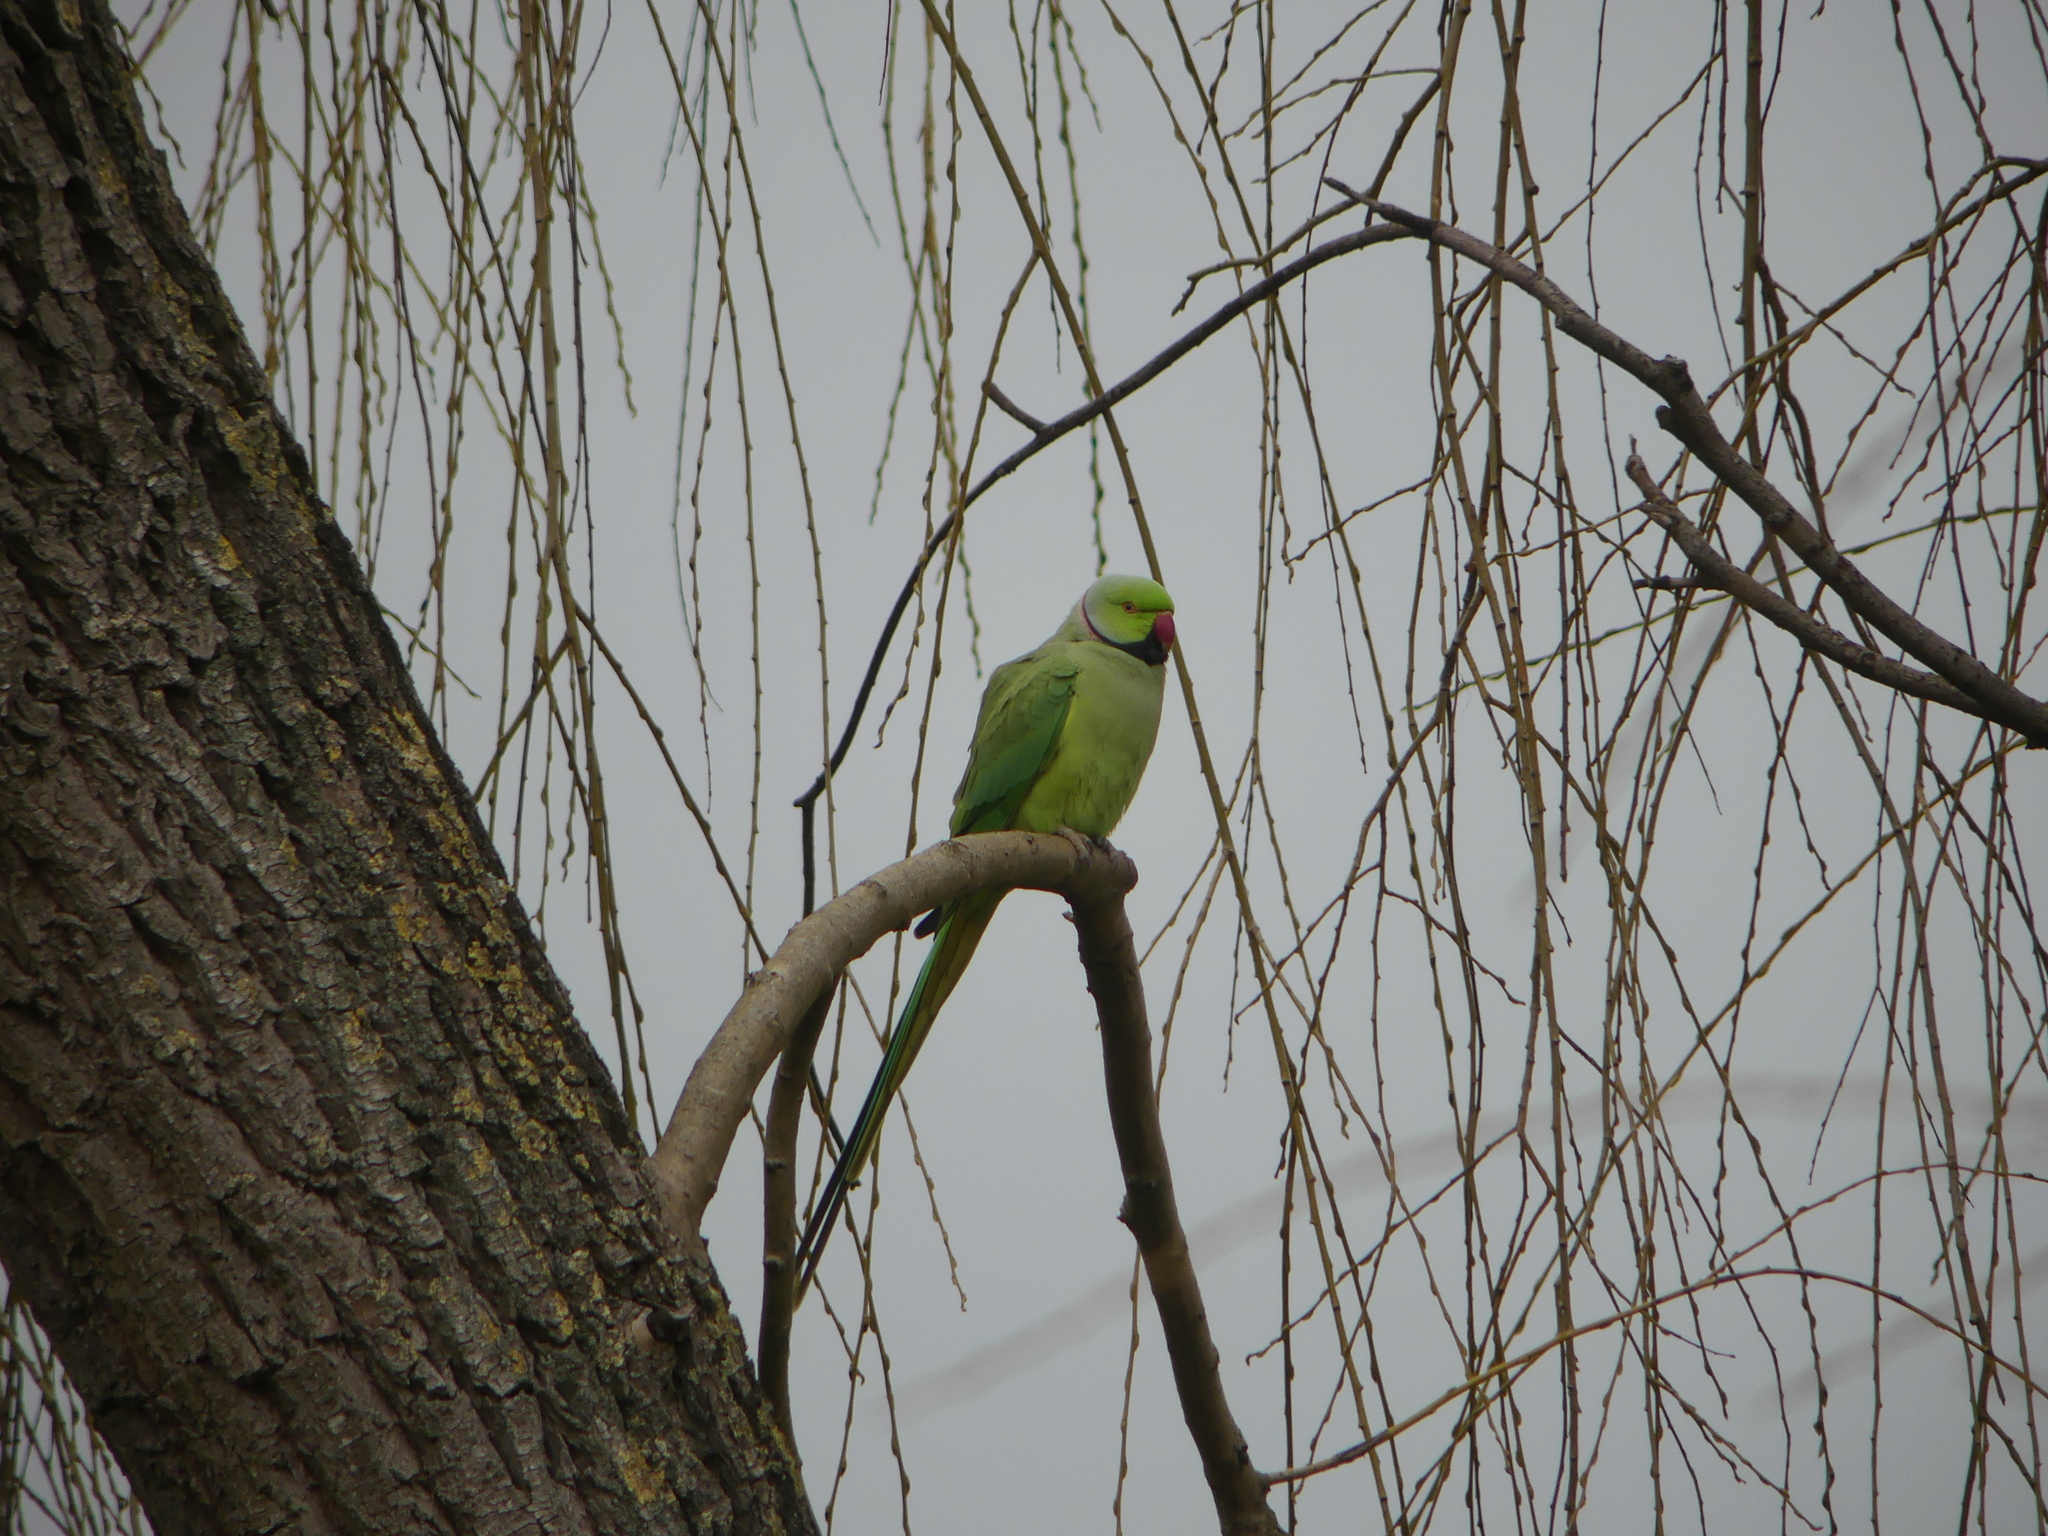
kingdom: Animalia
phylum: Chordata
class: Aves
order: Psittaciformes
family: Psittacidae
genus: Psittacula
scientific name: Psittacula krameri
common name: Rose-ringed parakeet
